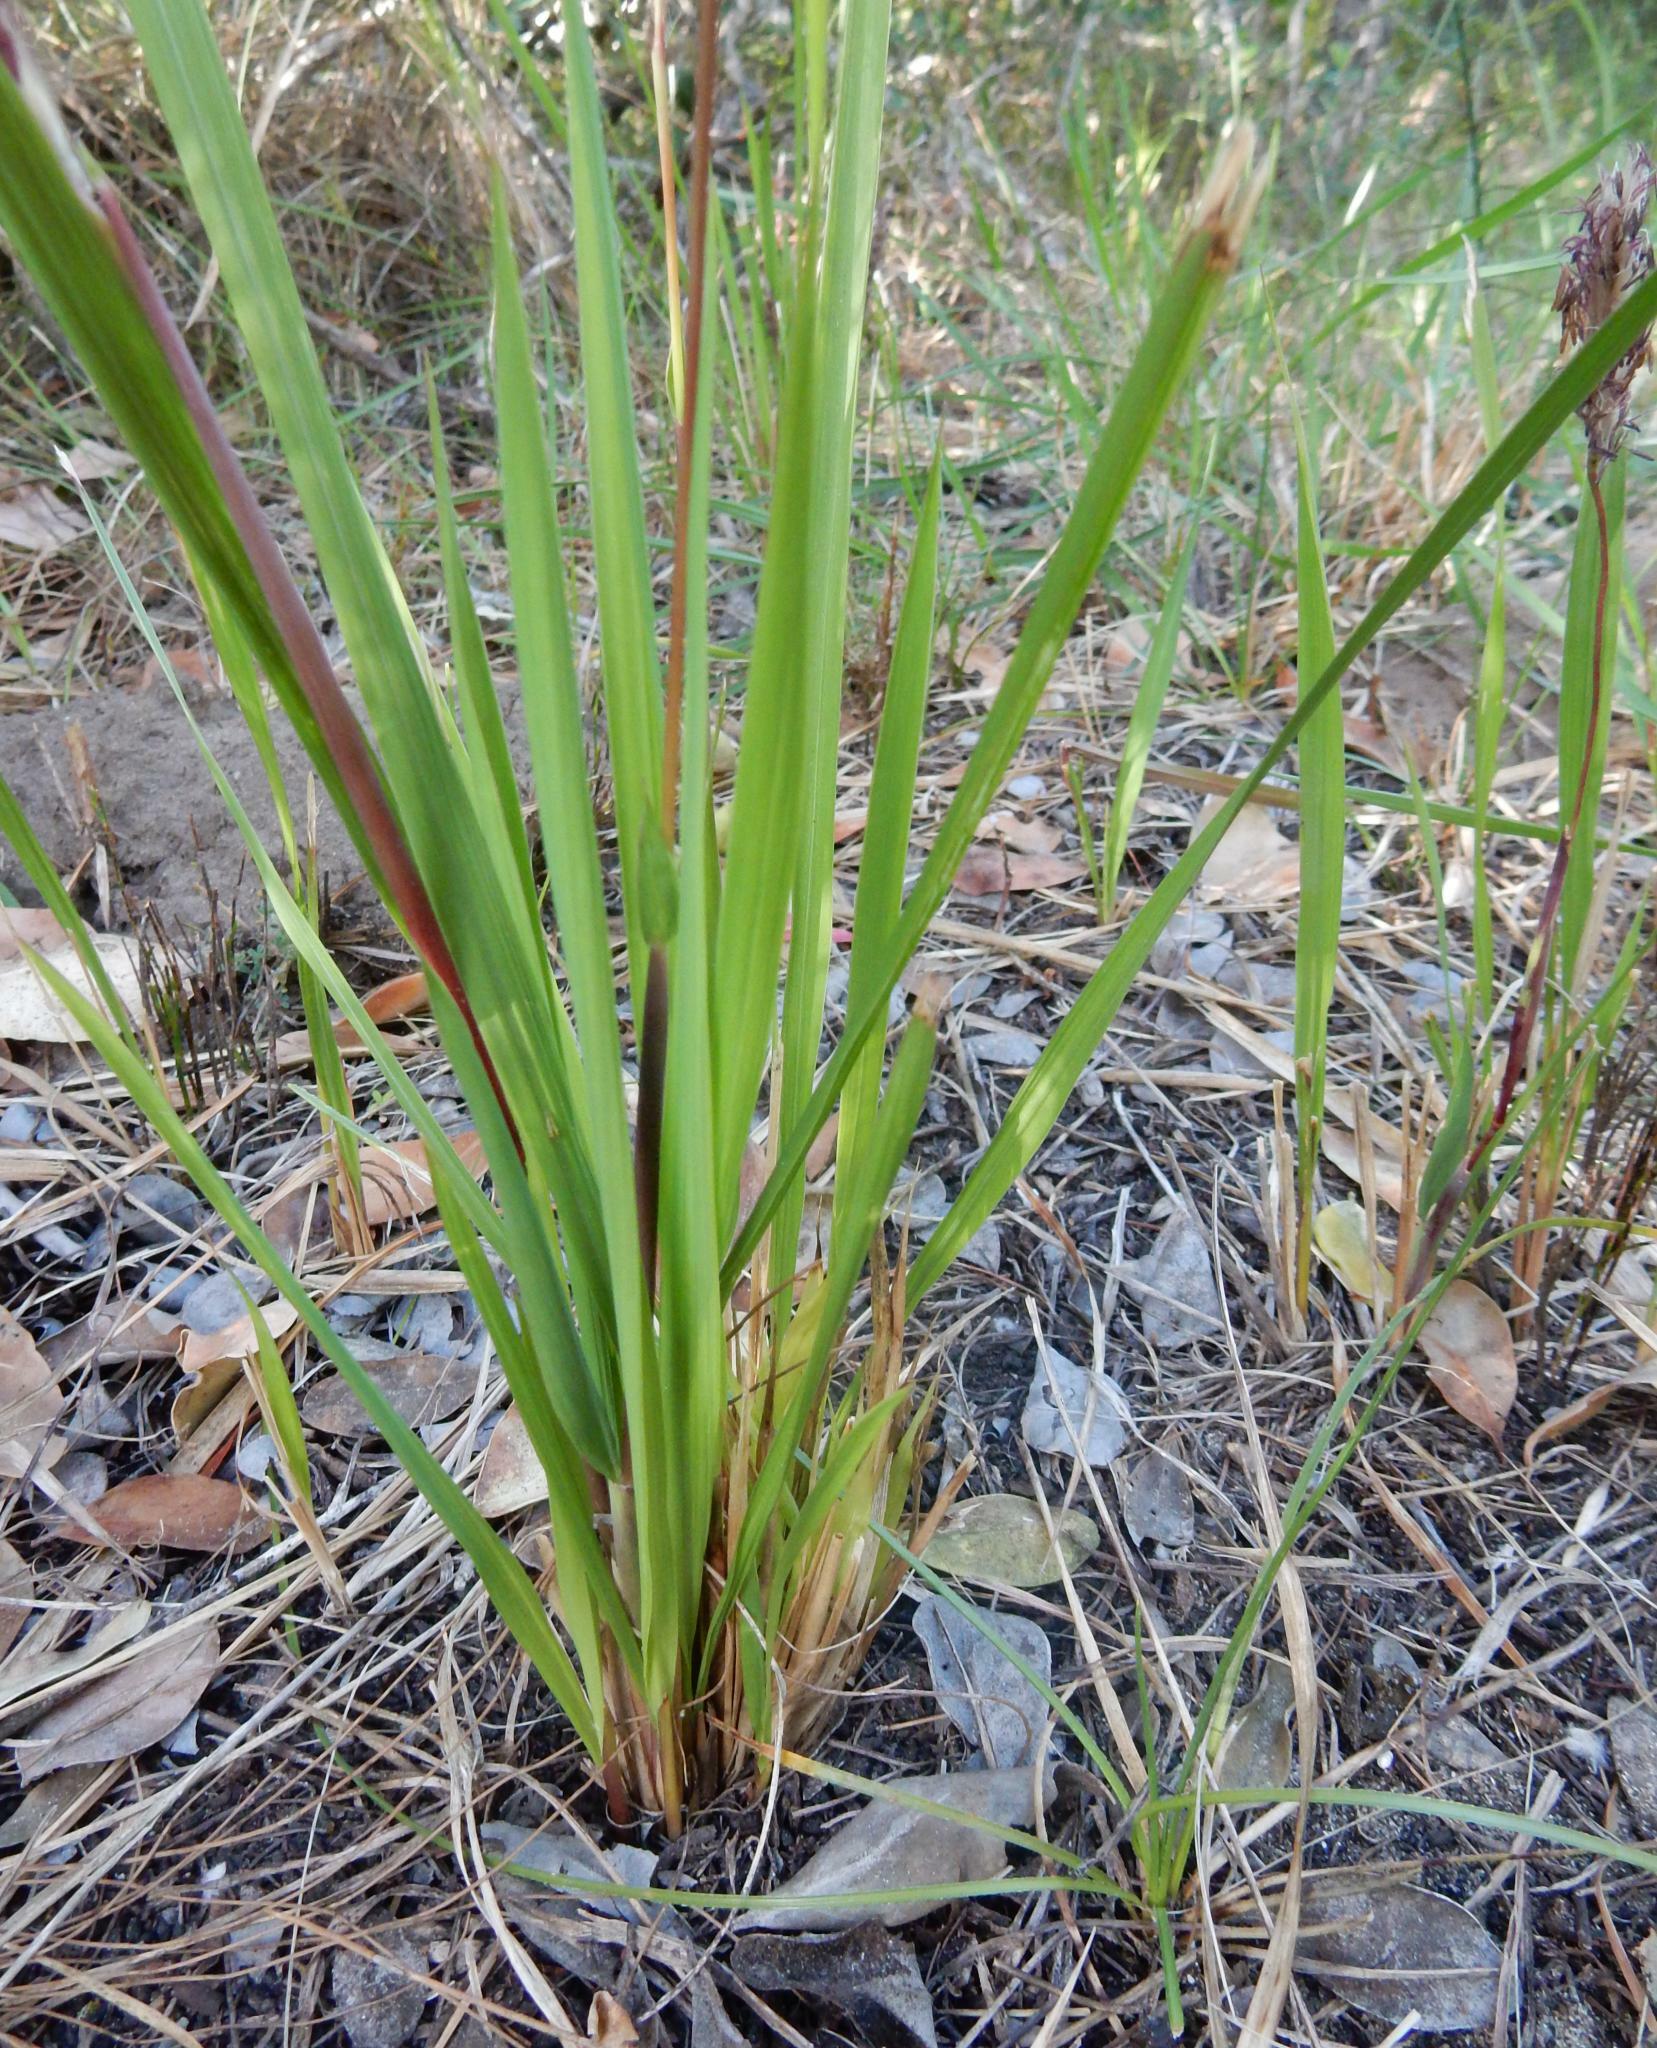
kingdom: Plantae
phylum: Tracheophyta
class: Liliopsida
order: Poales
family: Poaceae
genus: Imperata
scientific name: Imperata cylindrica
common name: Cogongrass
